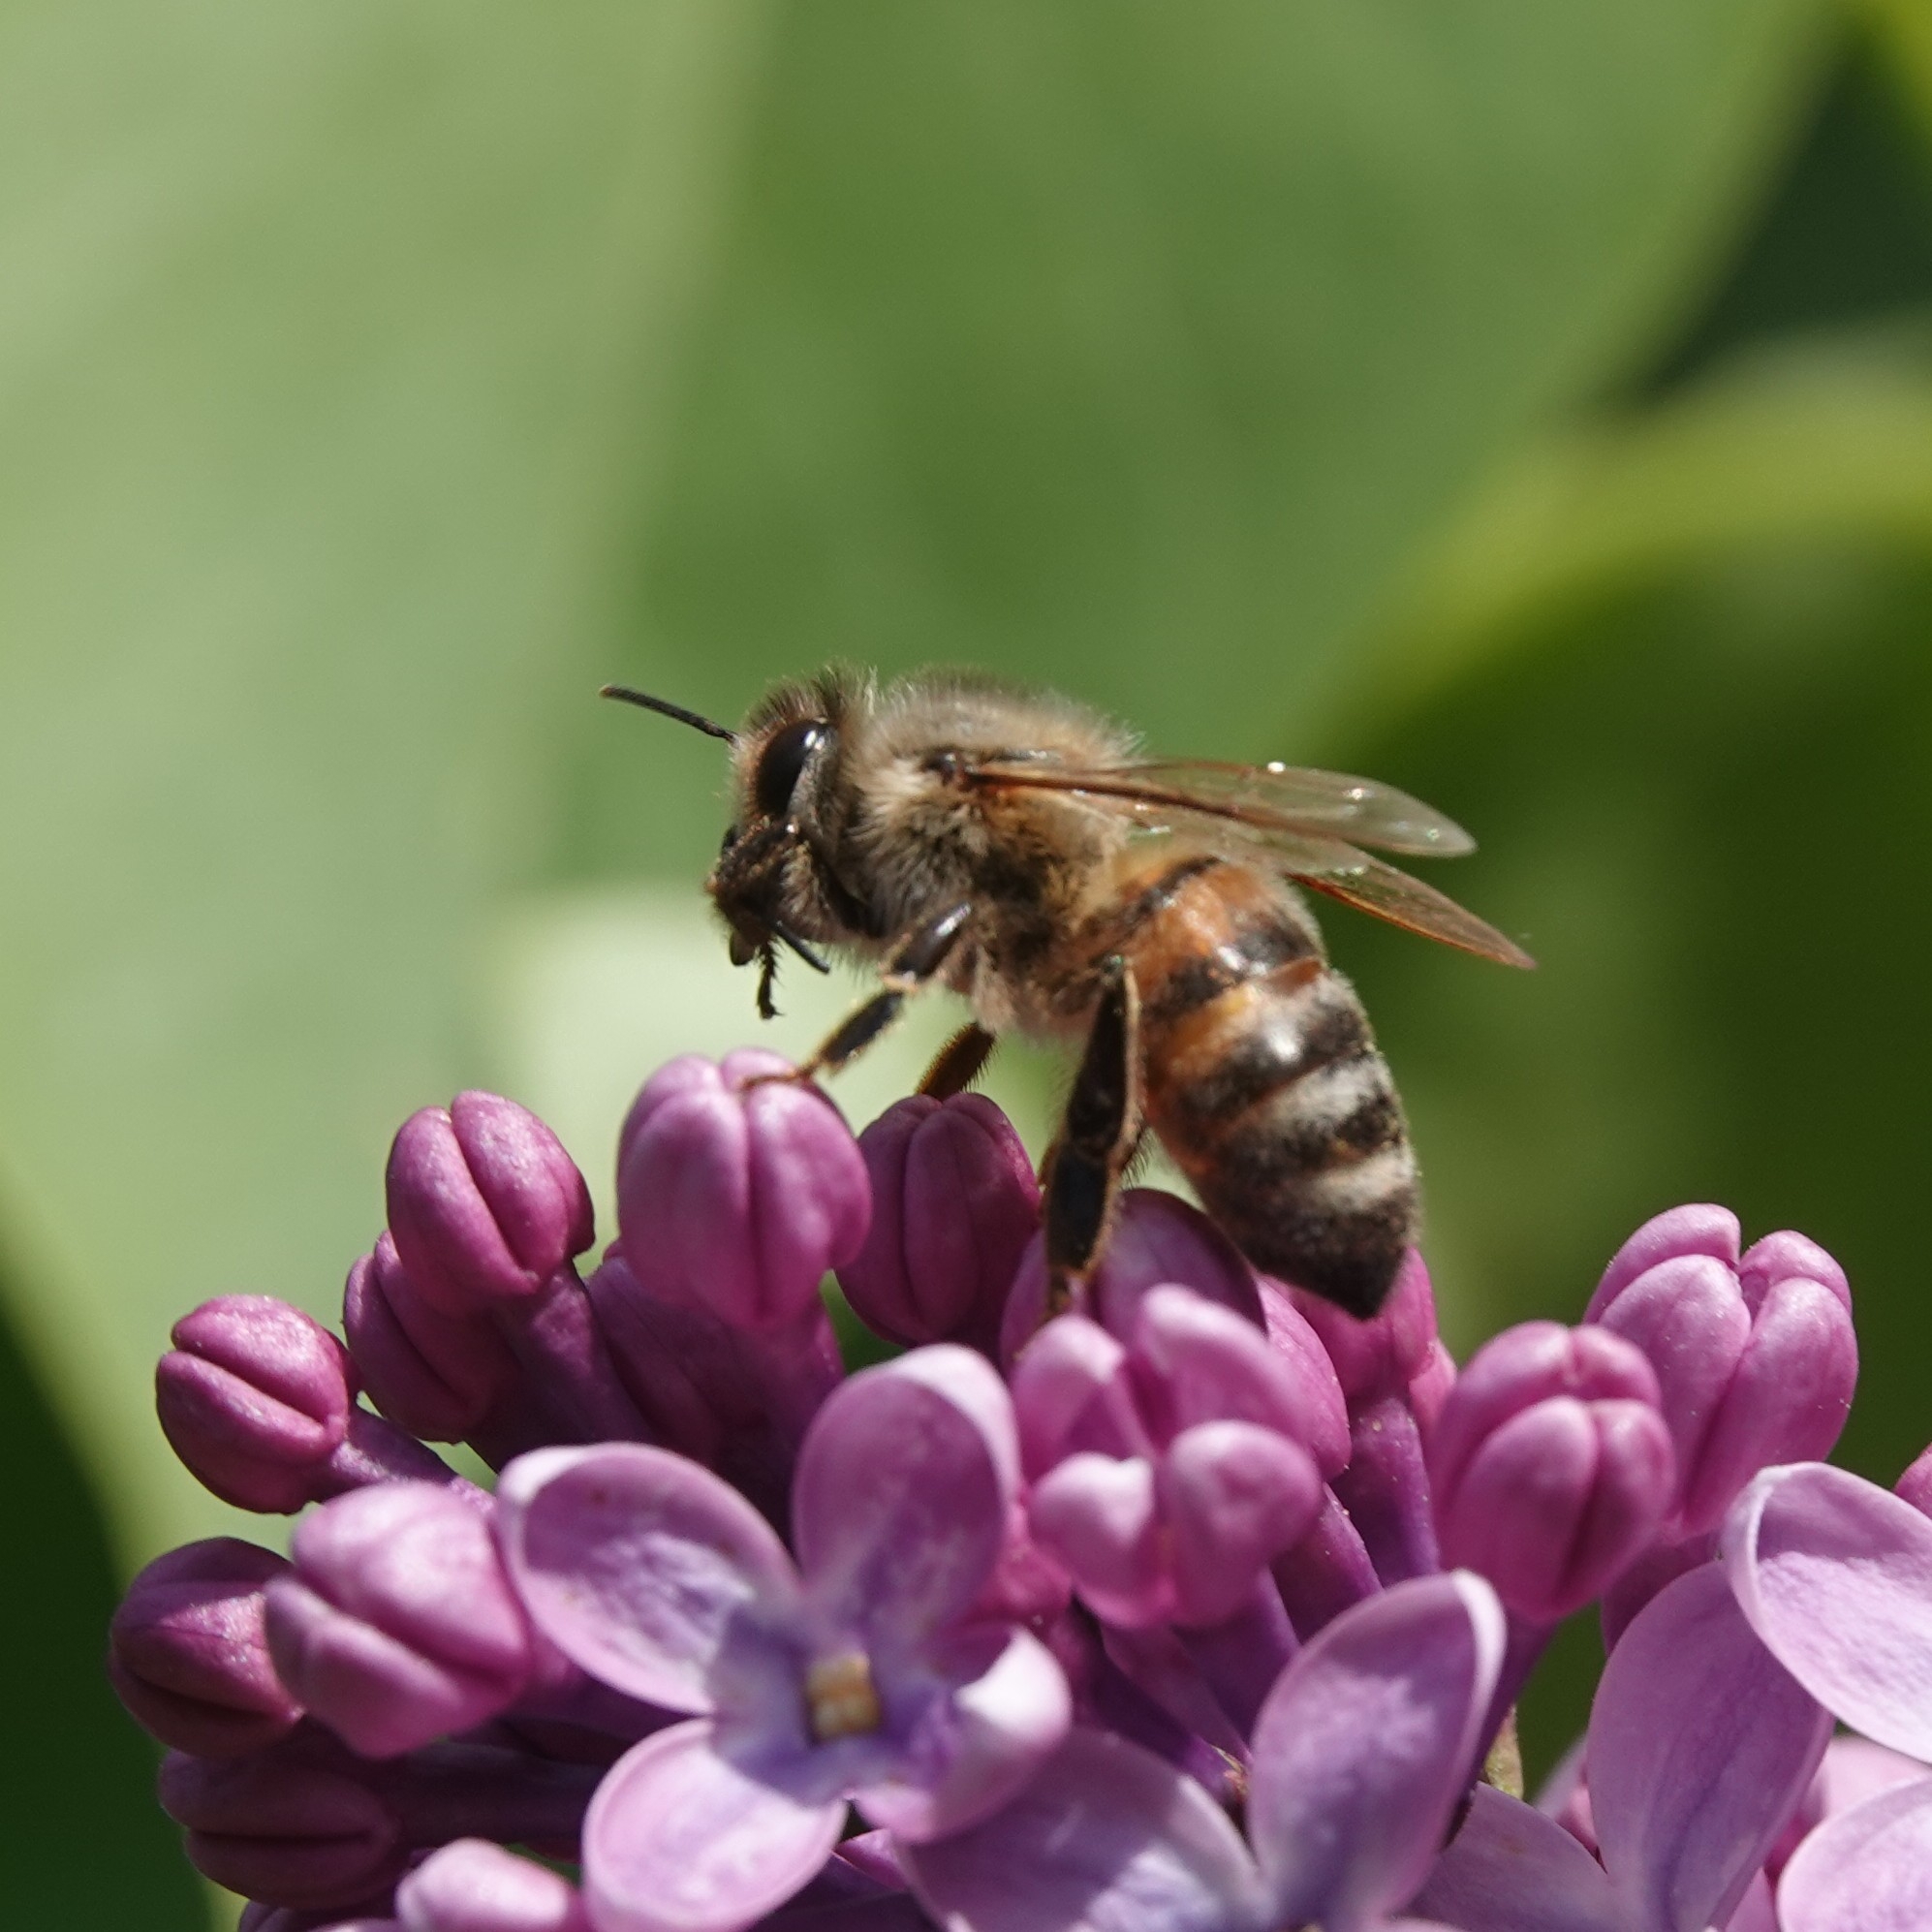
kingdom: Animalia
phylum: Arthropoda
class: Insecta
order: Hymenoptera
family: Apidae
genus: Apis
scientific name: Apis mellifera
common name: Honey bee
